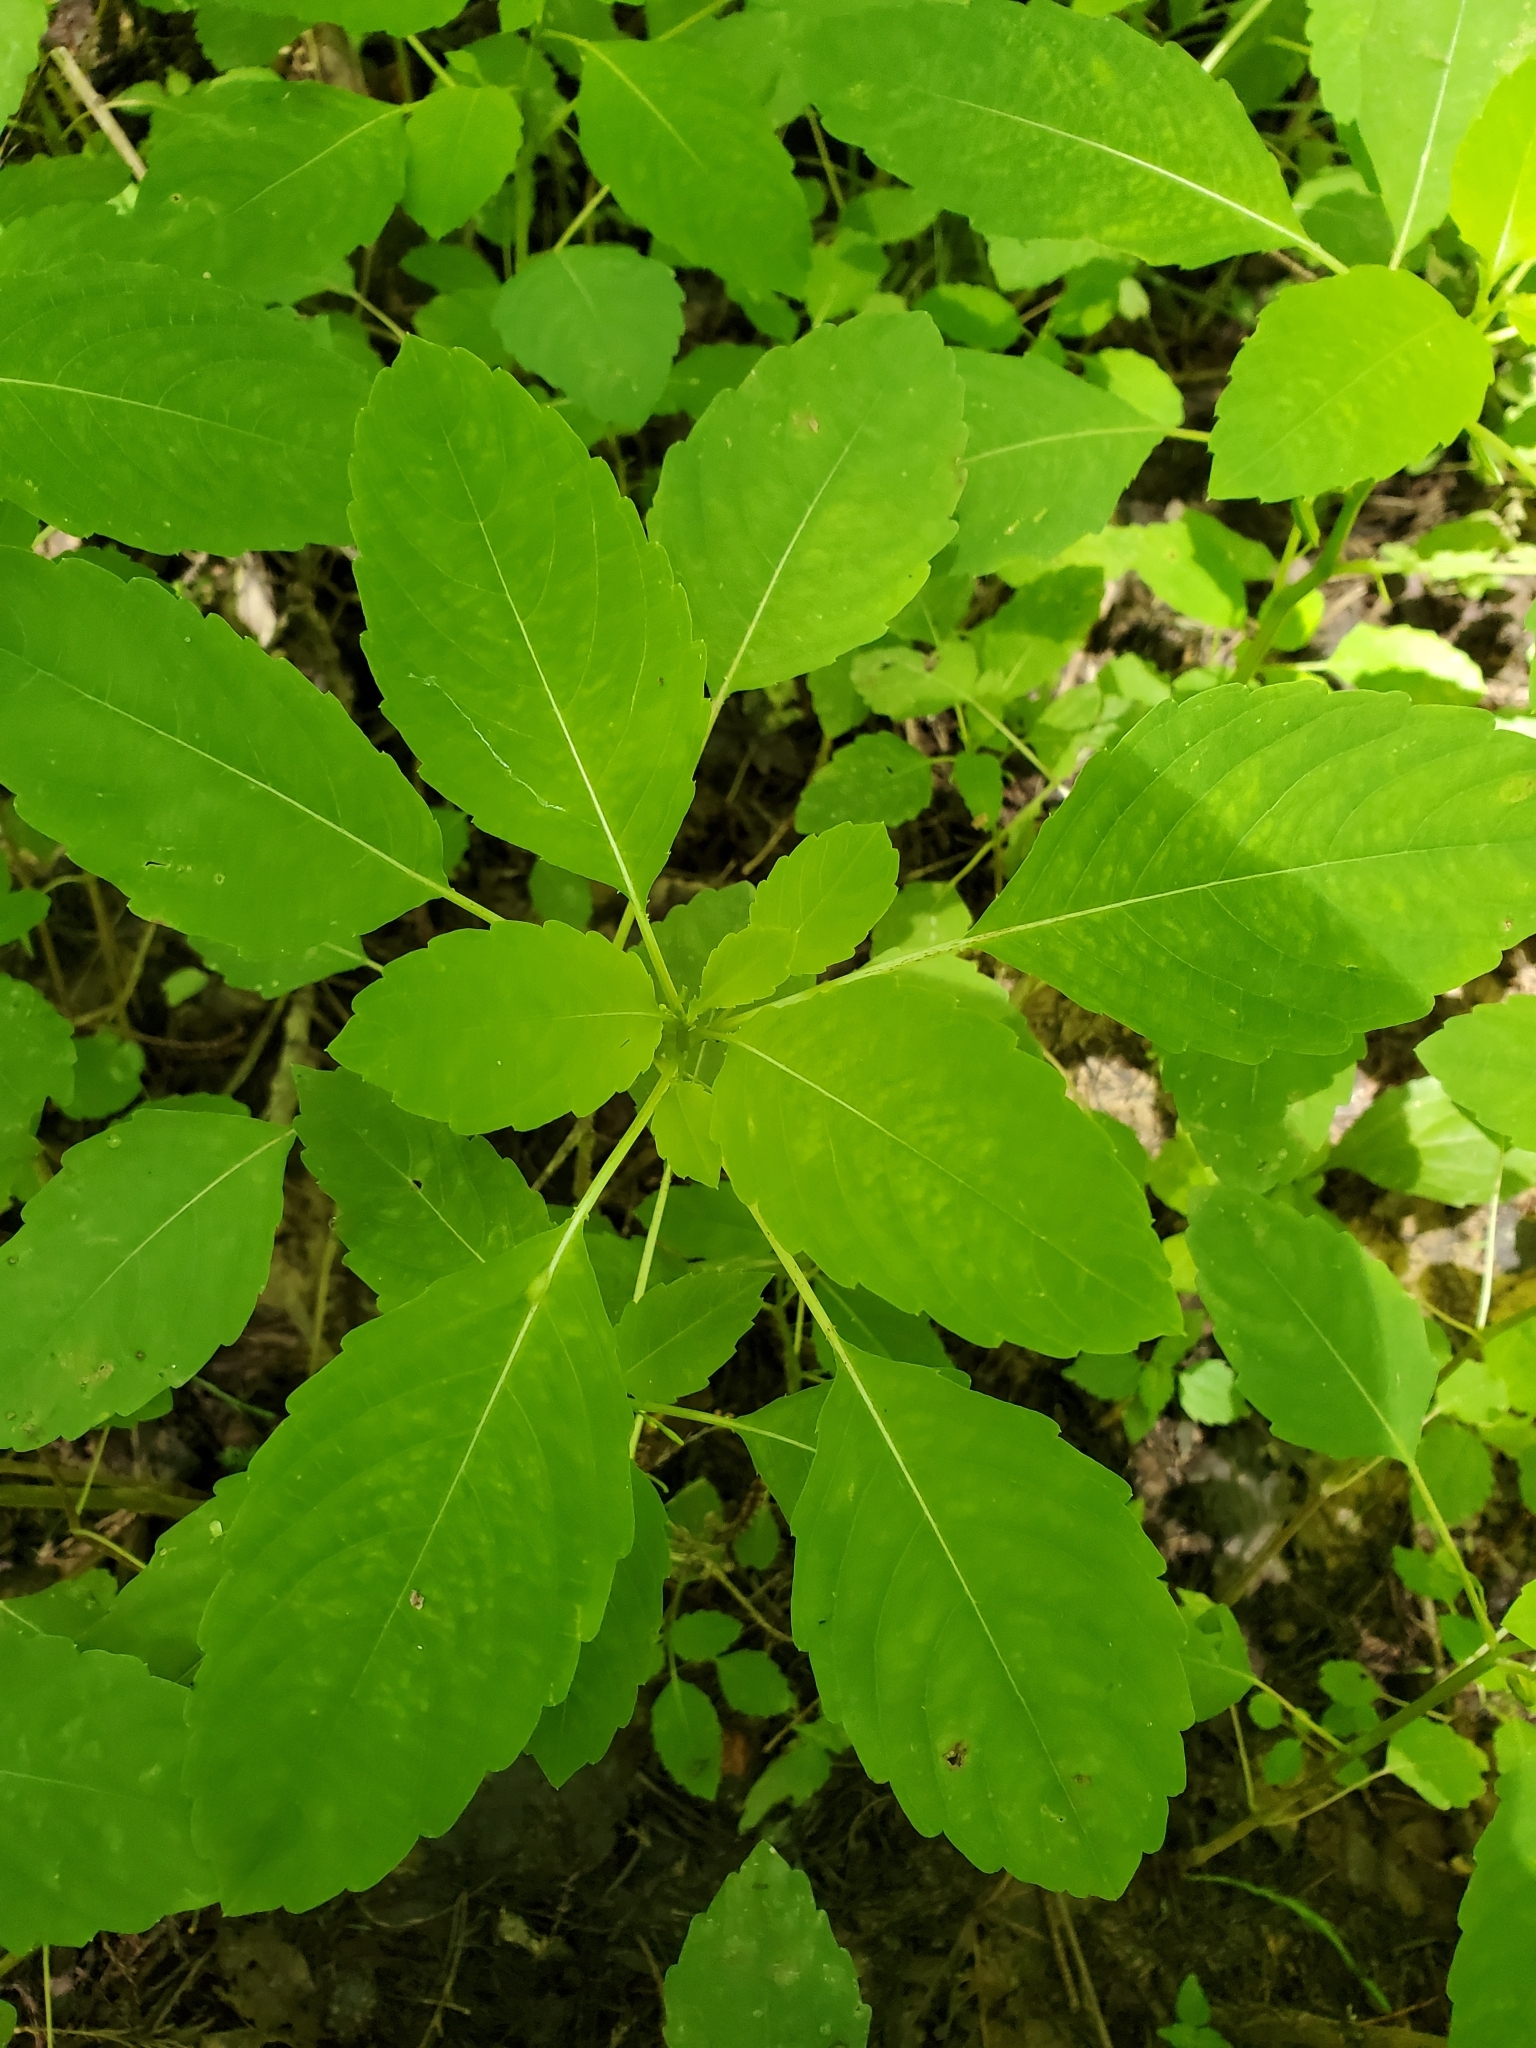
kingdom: Plantae
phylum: Tracheophyta
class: Magnoliopsida
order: Ericales
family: Balsaminaceae
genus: Impatiens
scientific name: Impatiens capensis
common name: Orange balsam
